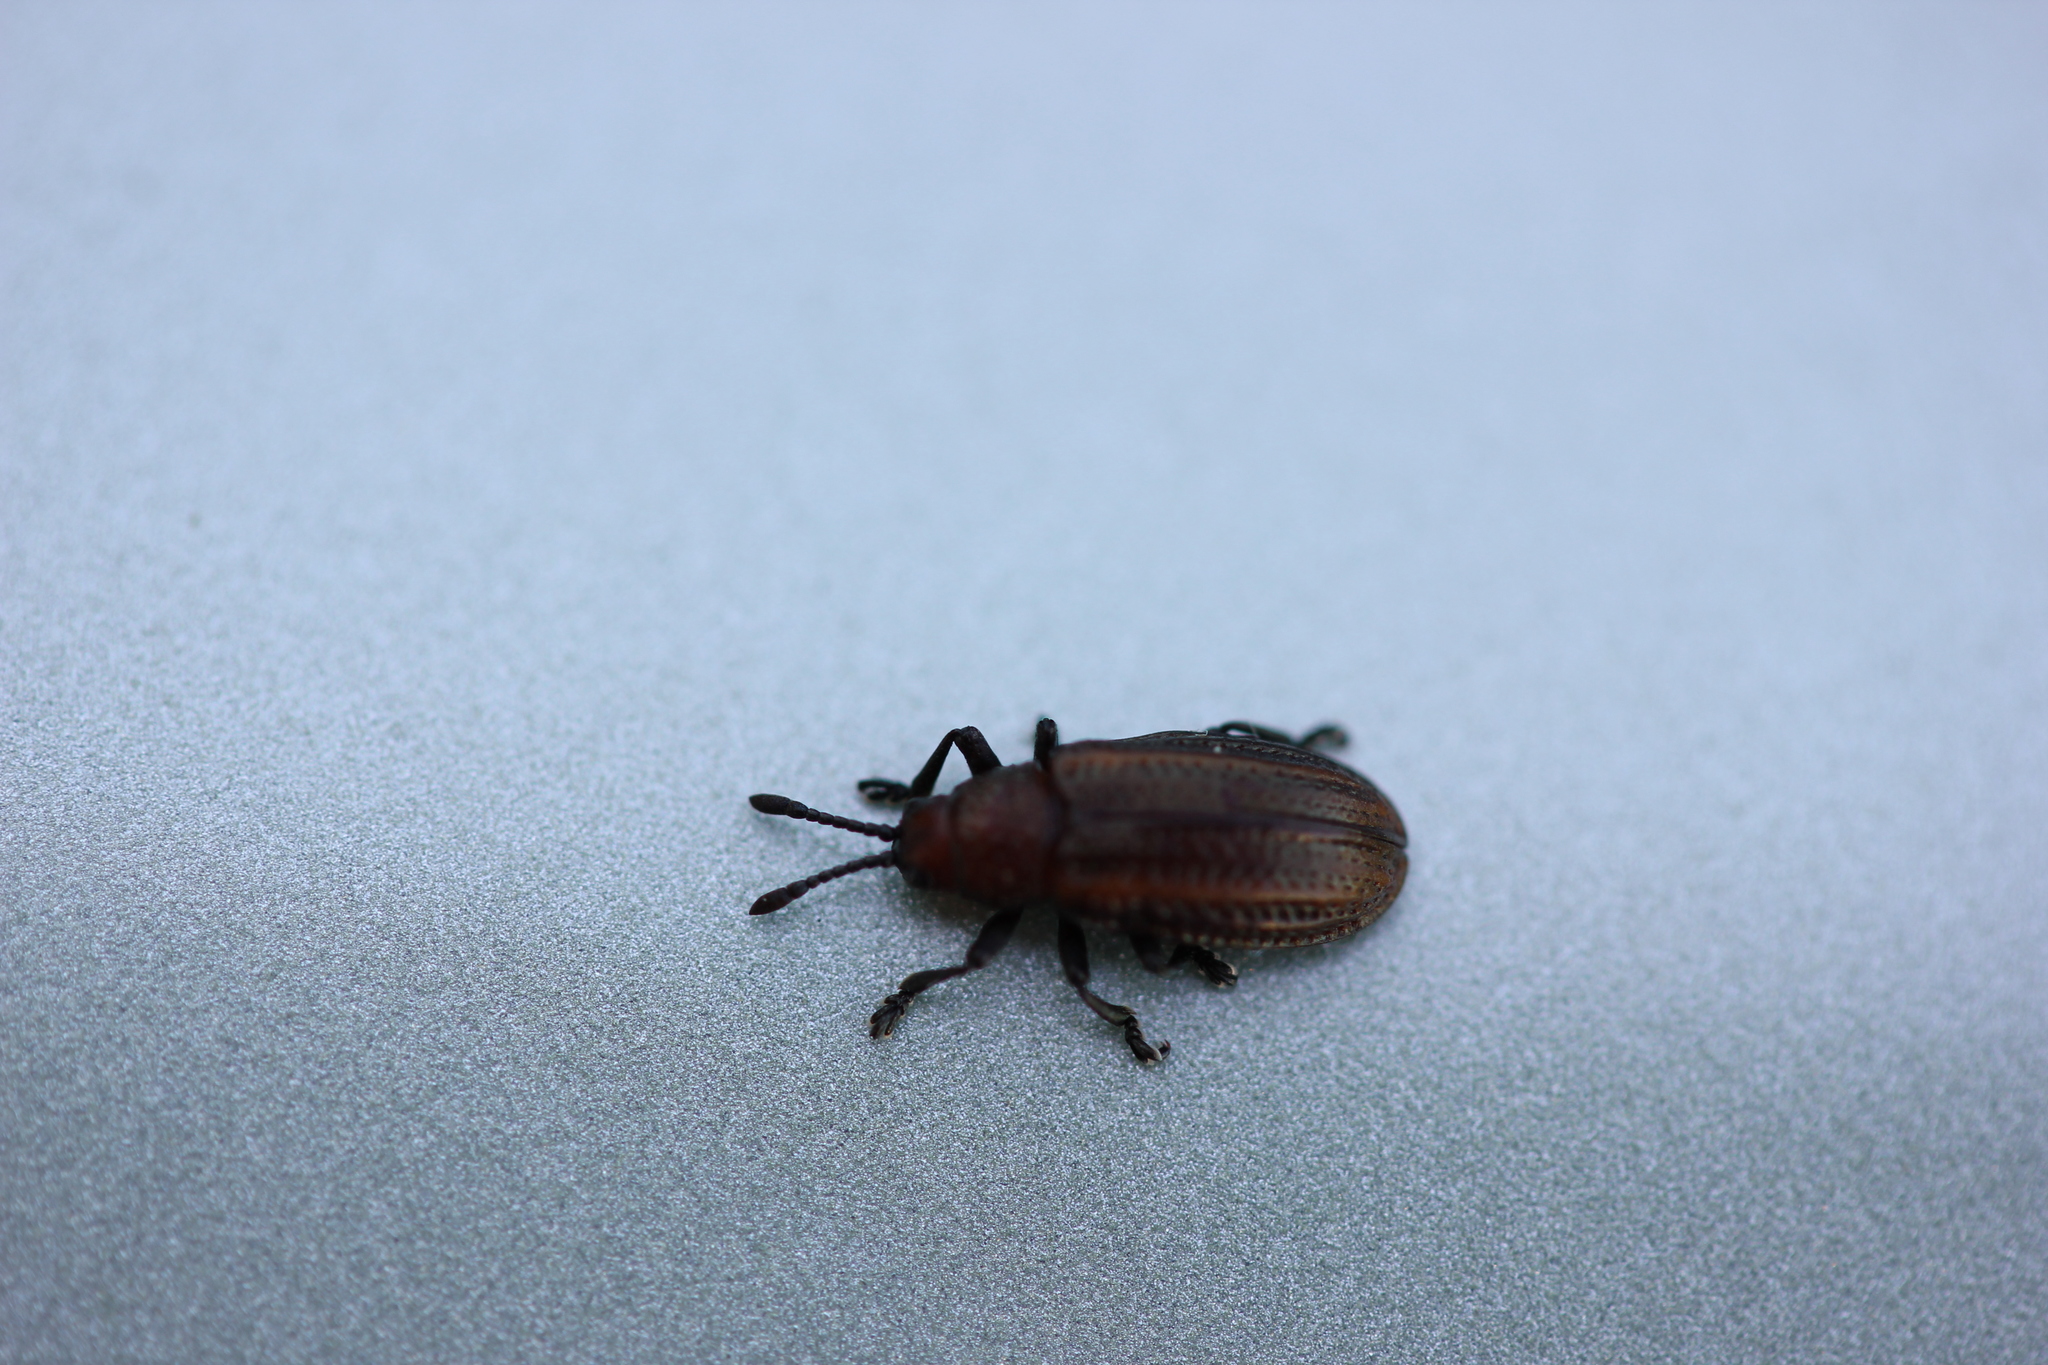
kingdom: Animalia
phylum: Arthropoda
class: Insecta
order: Coleoptera
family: Chrysomelidae
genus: Microrhopala
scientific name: Microrhopala vittata
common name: Goldenrod leaf miner beetle
